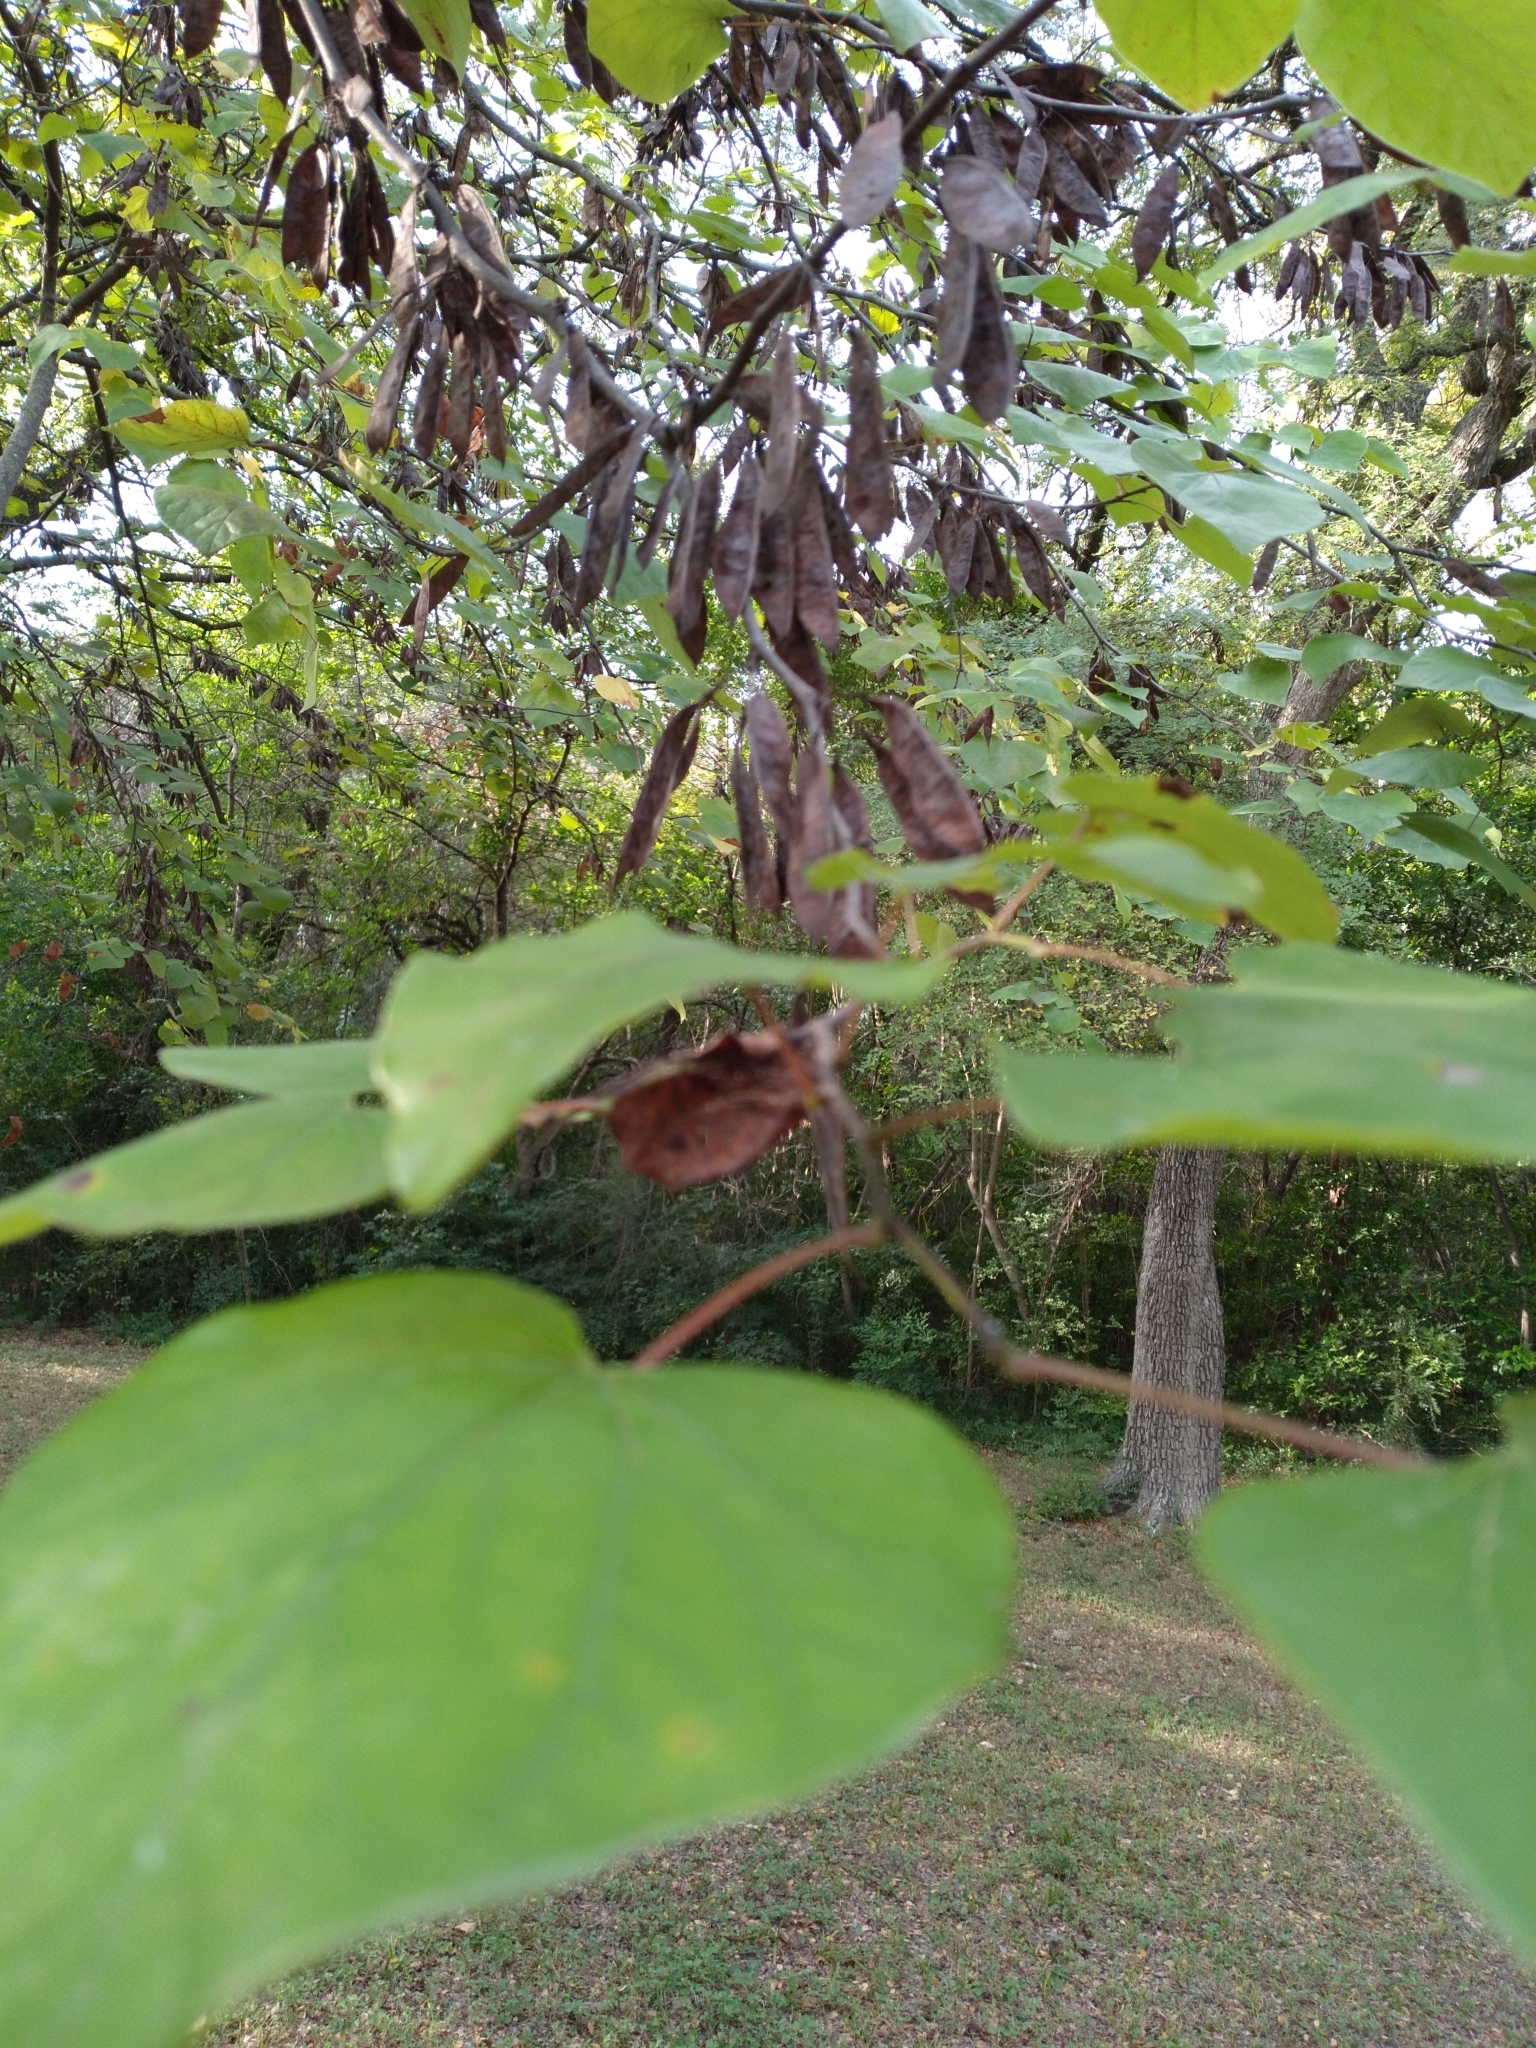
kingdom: Plantae
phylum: Tracheophyta
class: Magnoliopsida
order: Fabales
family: Fabaceae
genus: Cercis
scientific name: Cercis canadensis
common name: Eastern redbud
